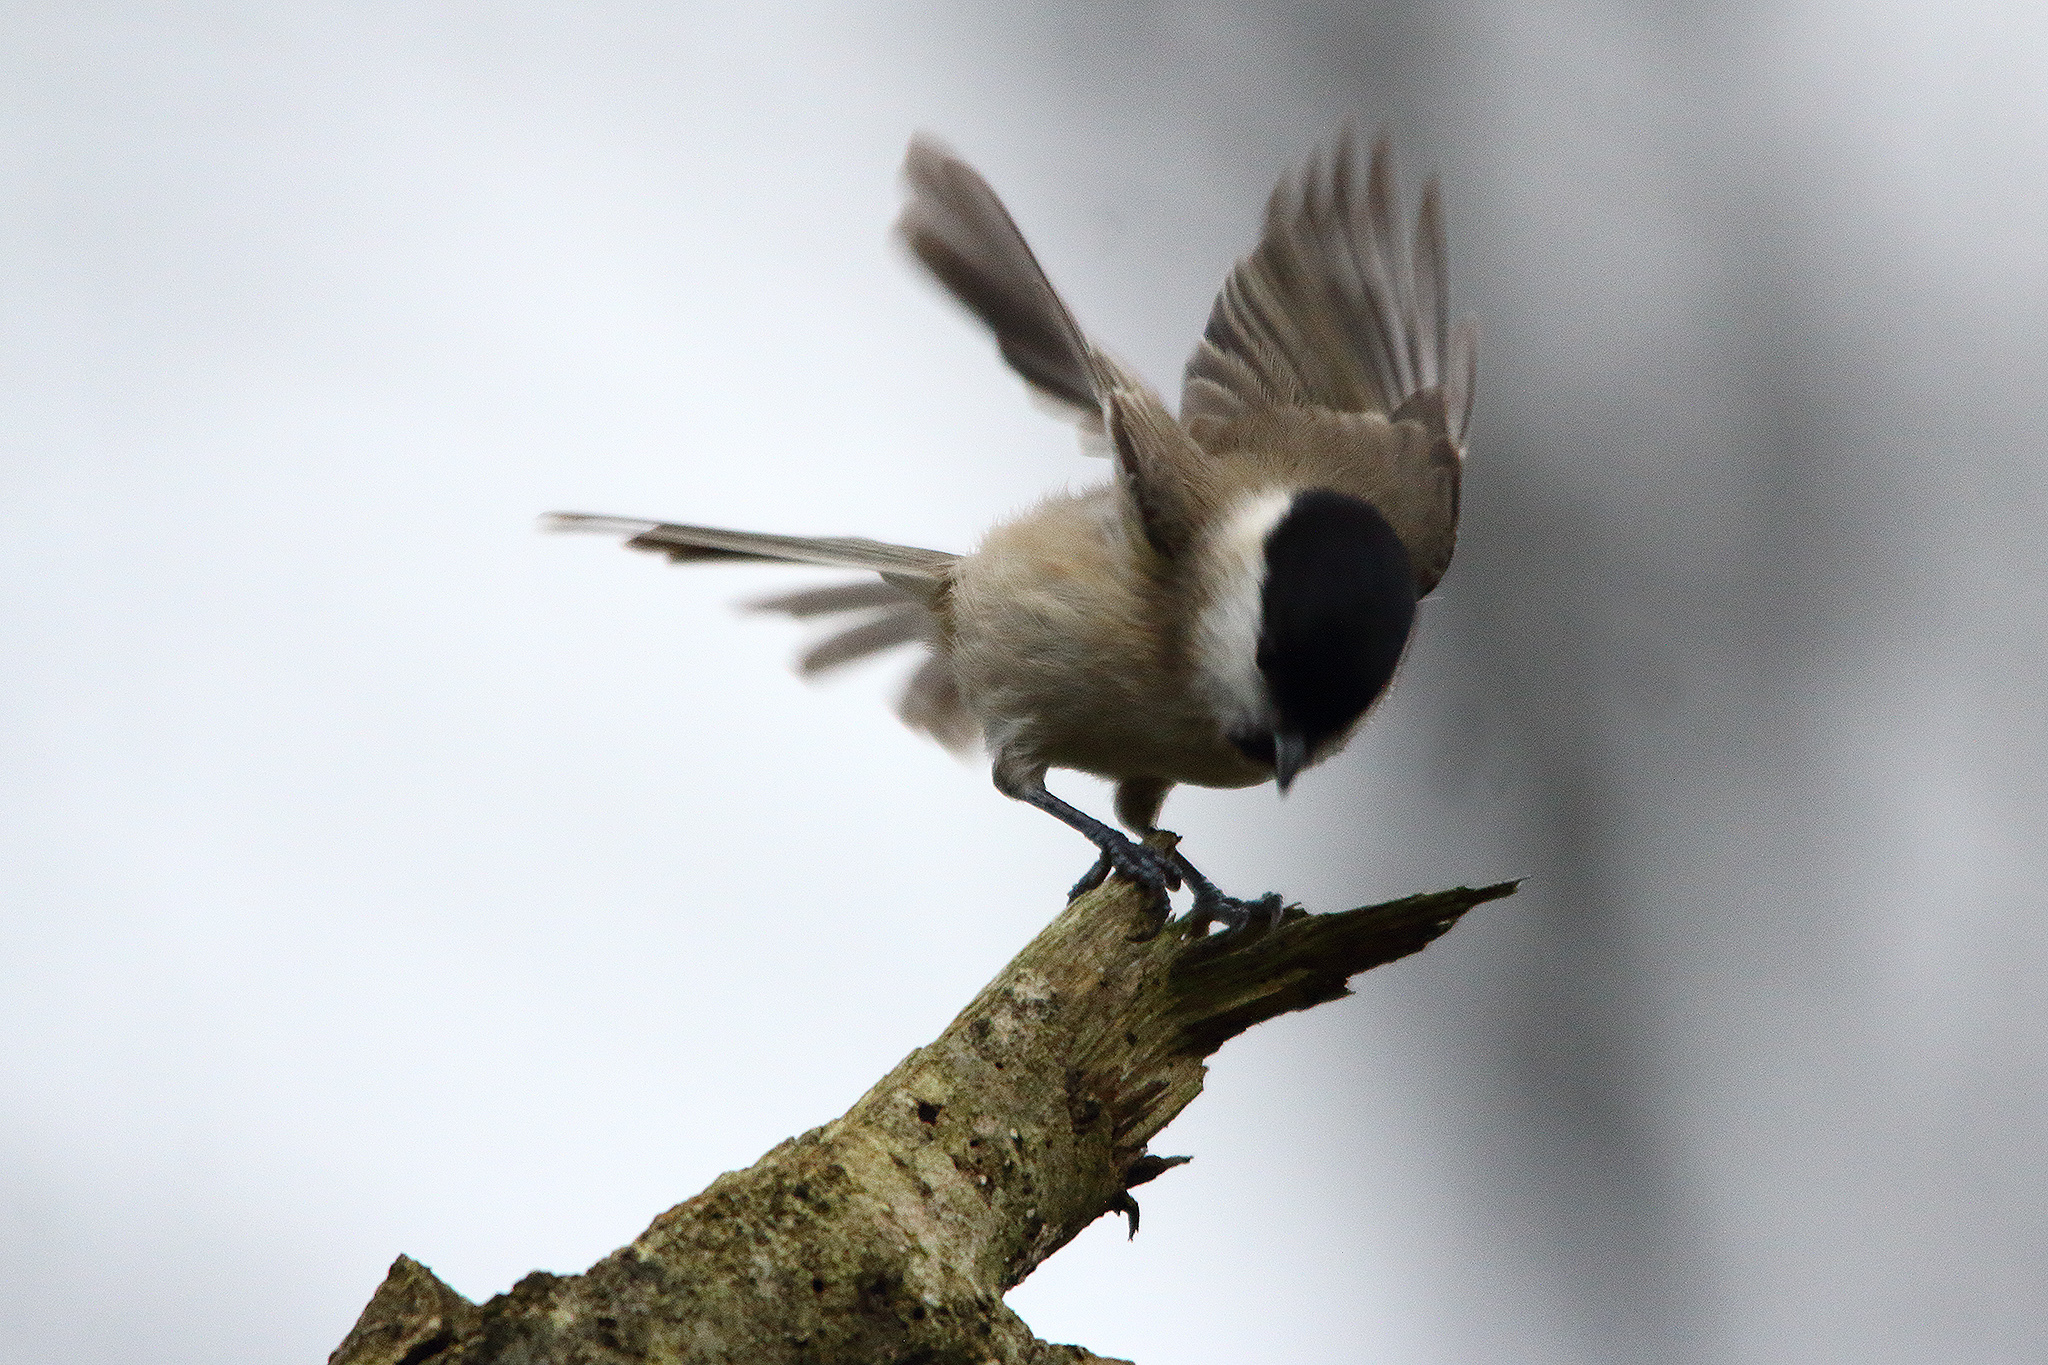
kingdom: Animalia
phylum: Chordata
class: Aves
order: Passeriformes
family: Paridae
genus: Poecile
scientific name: Poecile palustris
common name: Marsh tit
